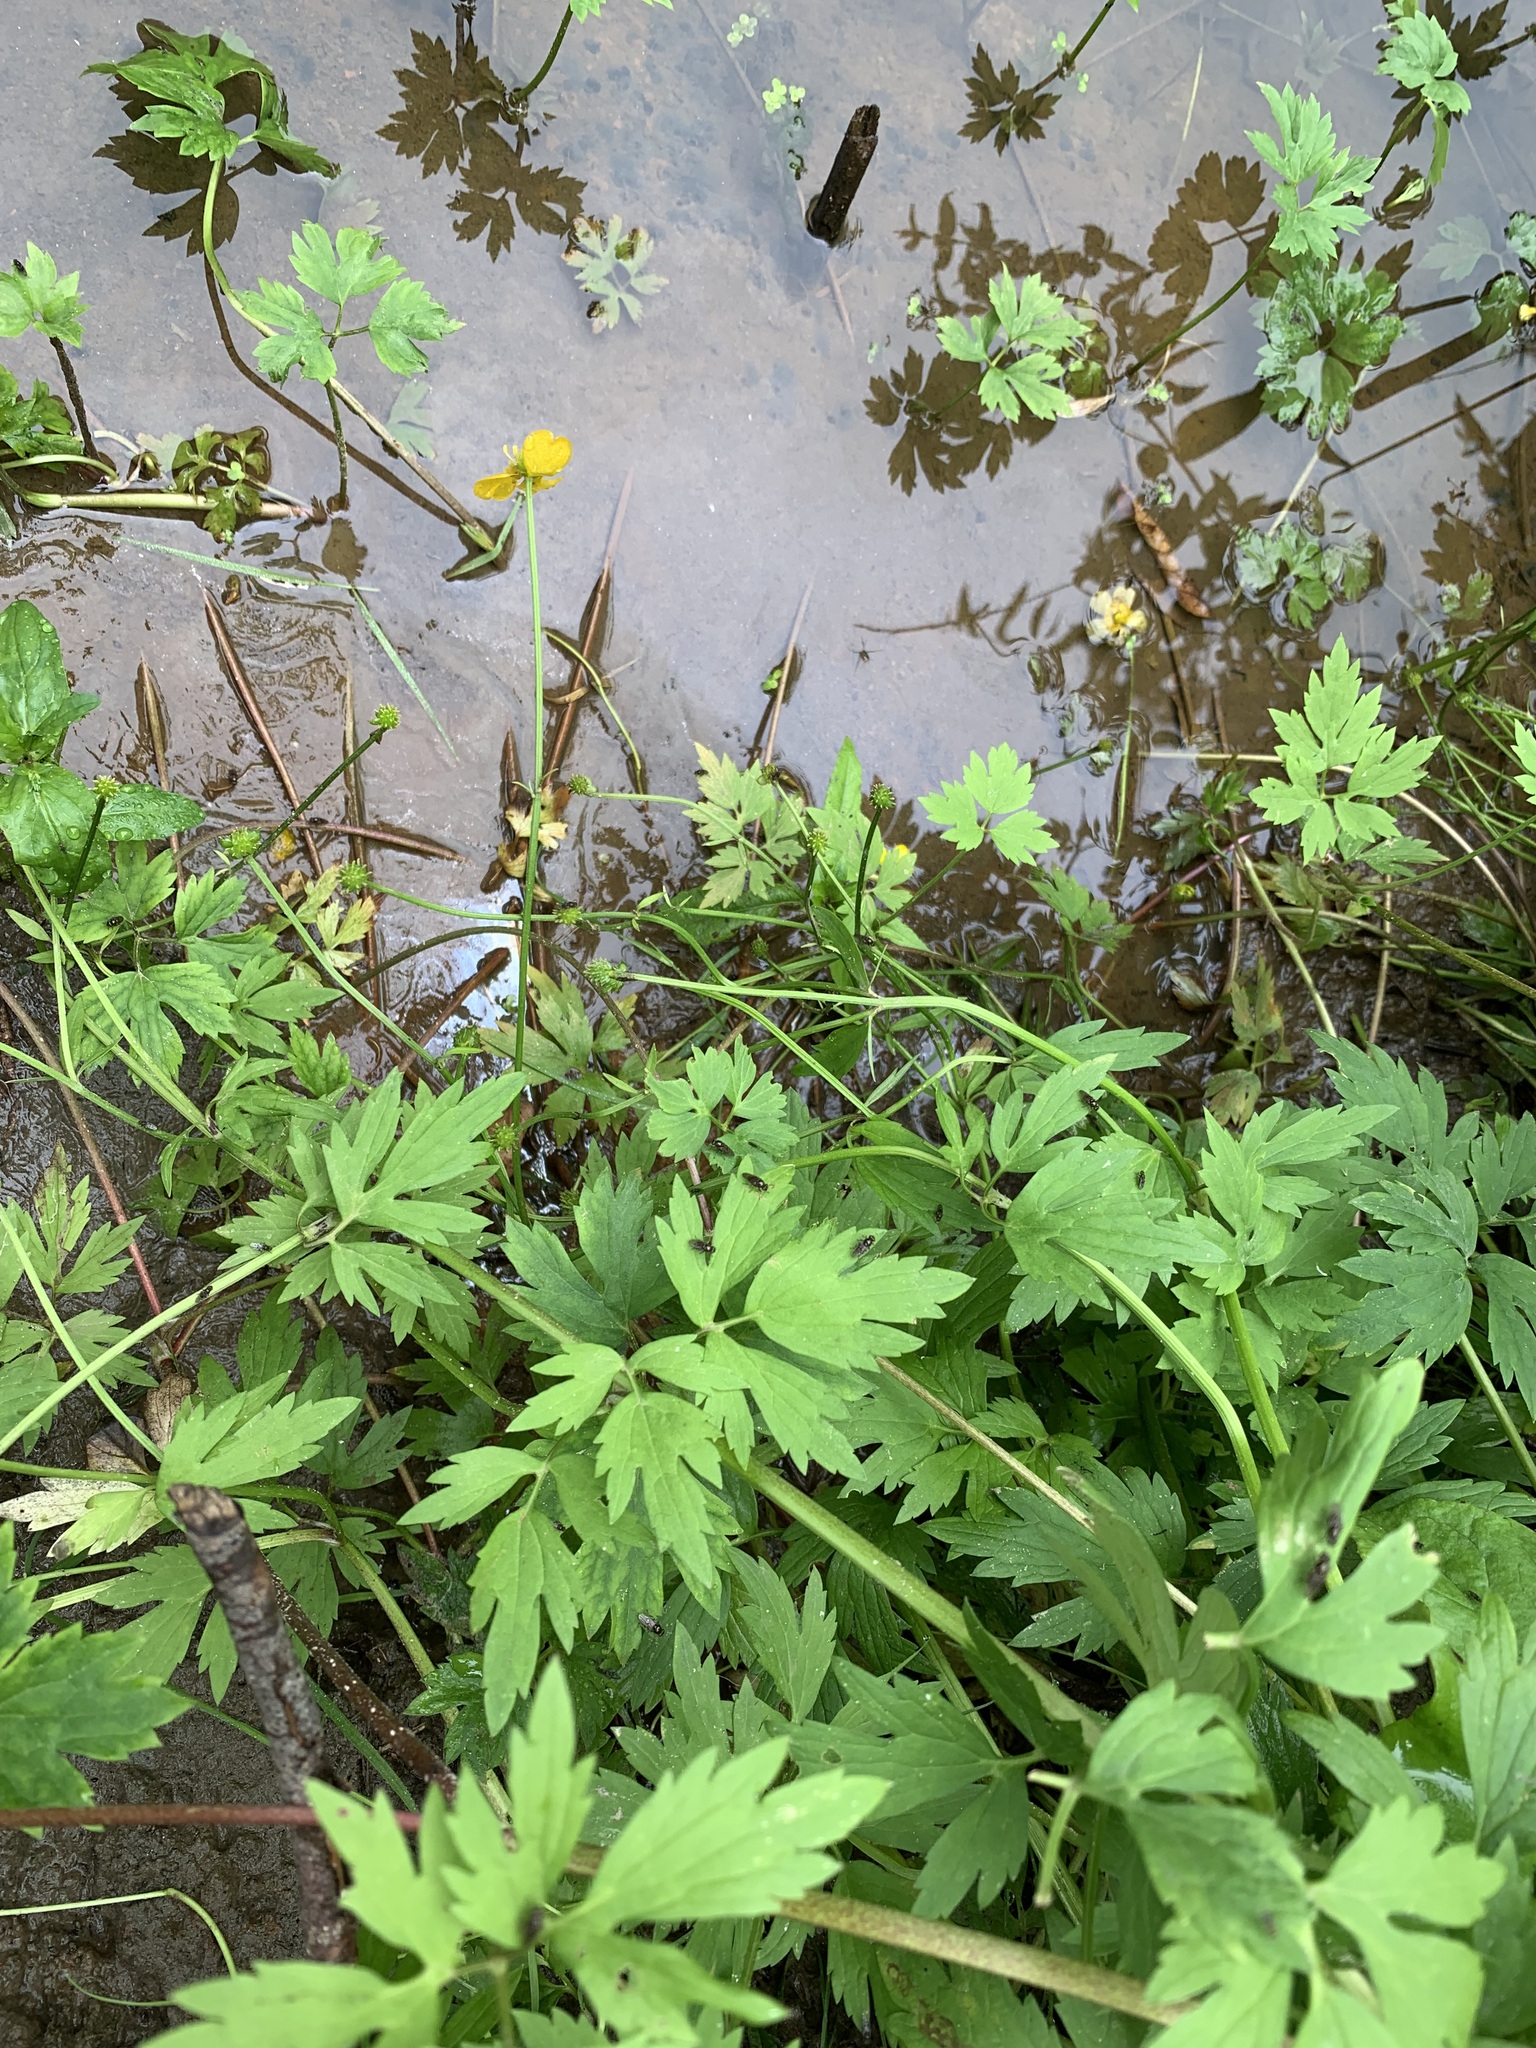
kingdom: Plantae
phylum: Tracheophyta
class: Magnoliopsida
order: Ranunculales
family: Ranunculaceae
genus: Ranunculus
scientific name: Ranunculus repens
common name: Creeping buttercup
